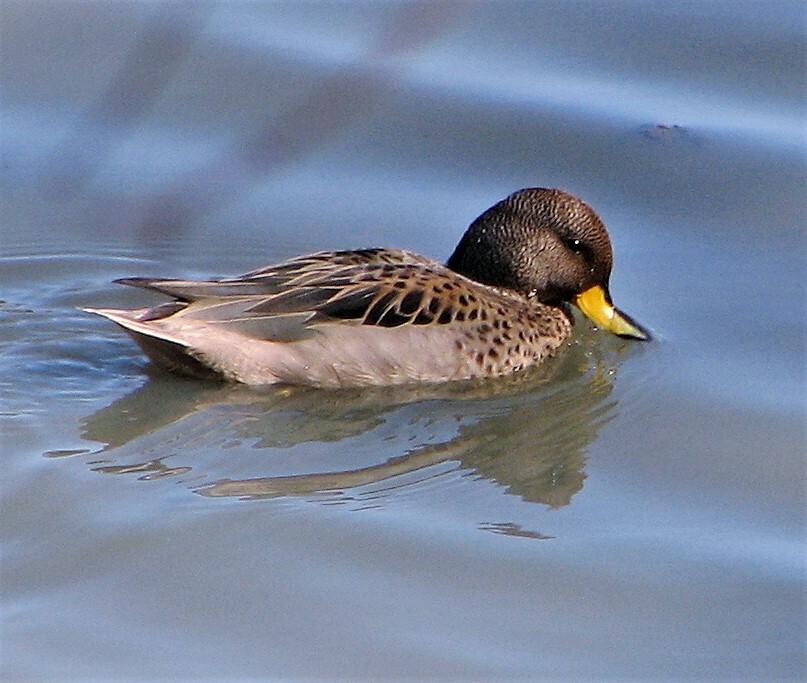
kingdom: Animalia
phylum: Chordata
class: Aves
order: Anseriformes
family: Anatidae
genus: Anas
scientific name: Anas flavirostris
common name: Yellow-billed teal
